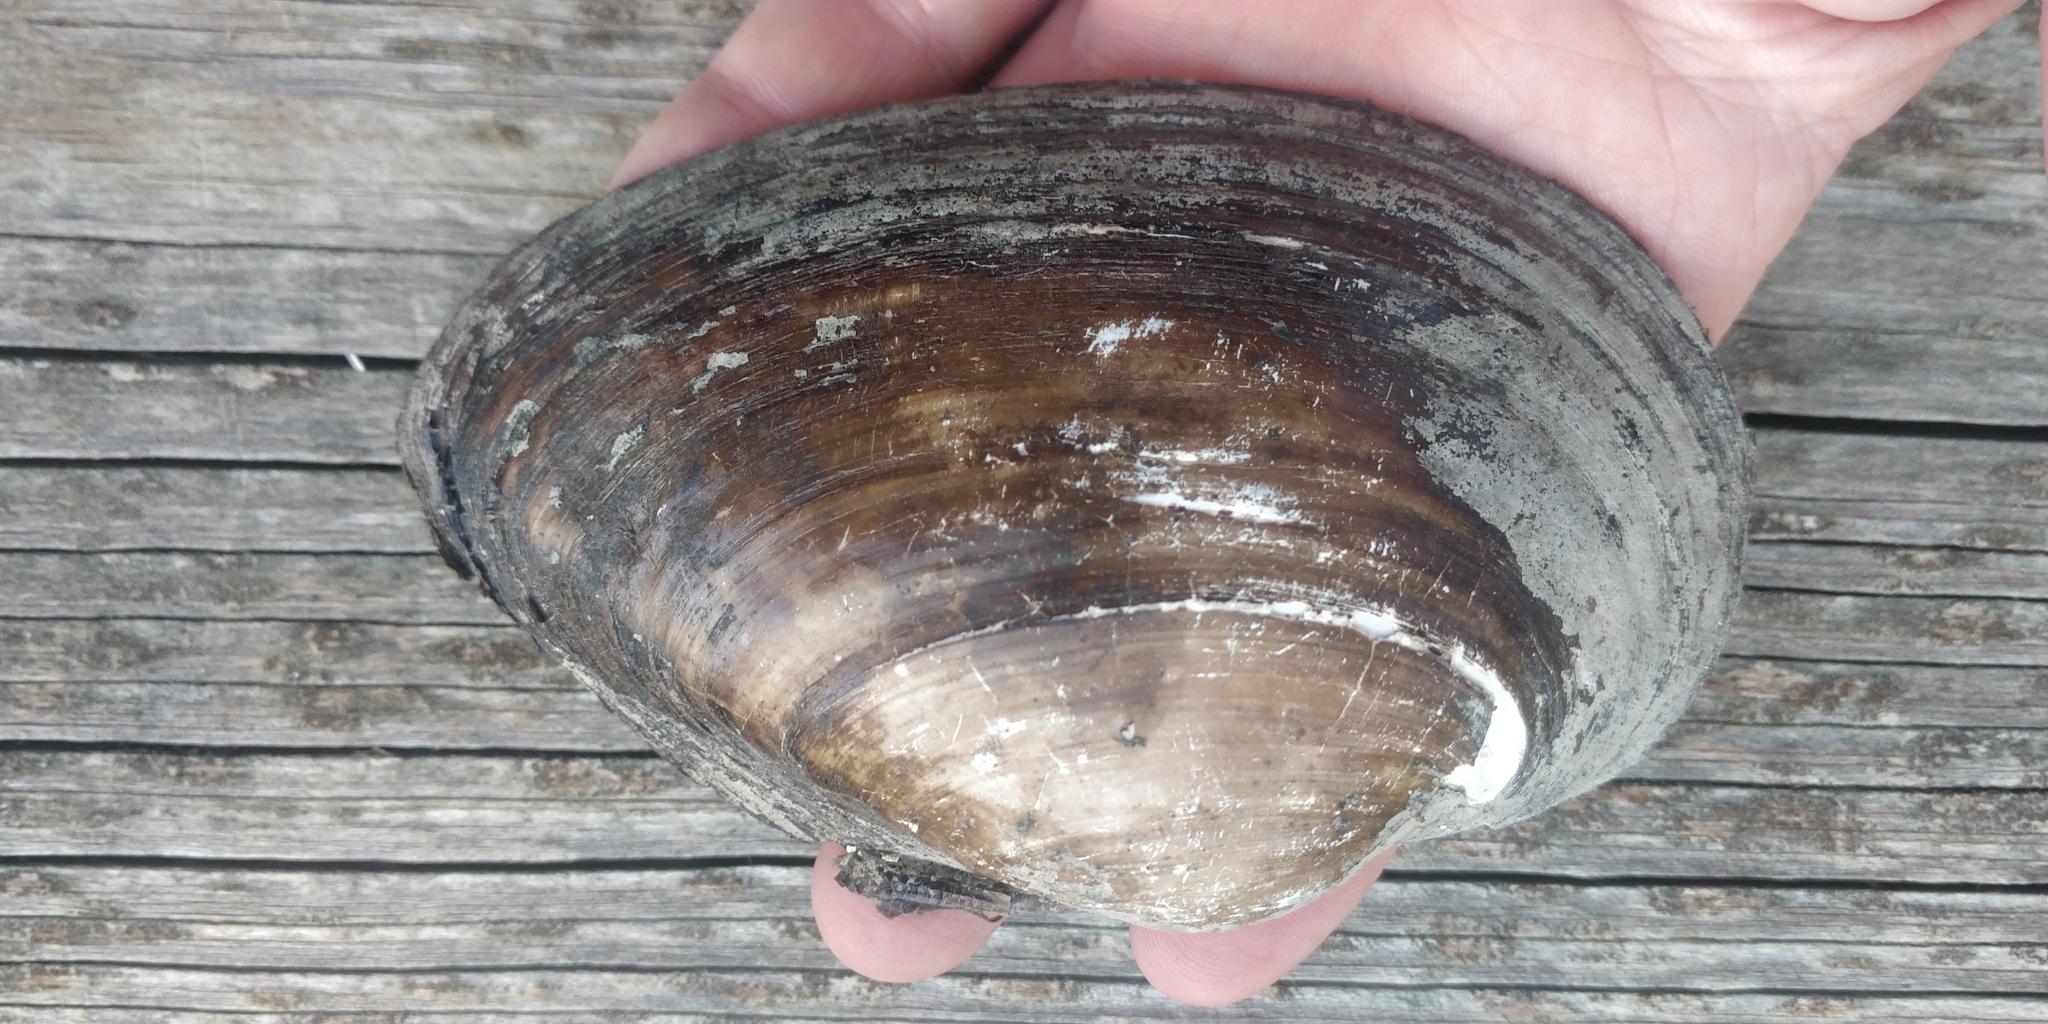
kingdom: Animalia
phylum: Mollusca
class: Bivalvia
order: Unionida
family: Unionidae
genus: Pyganodon
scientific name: Pyganodon grandis
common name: Giant floater
